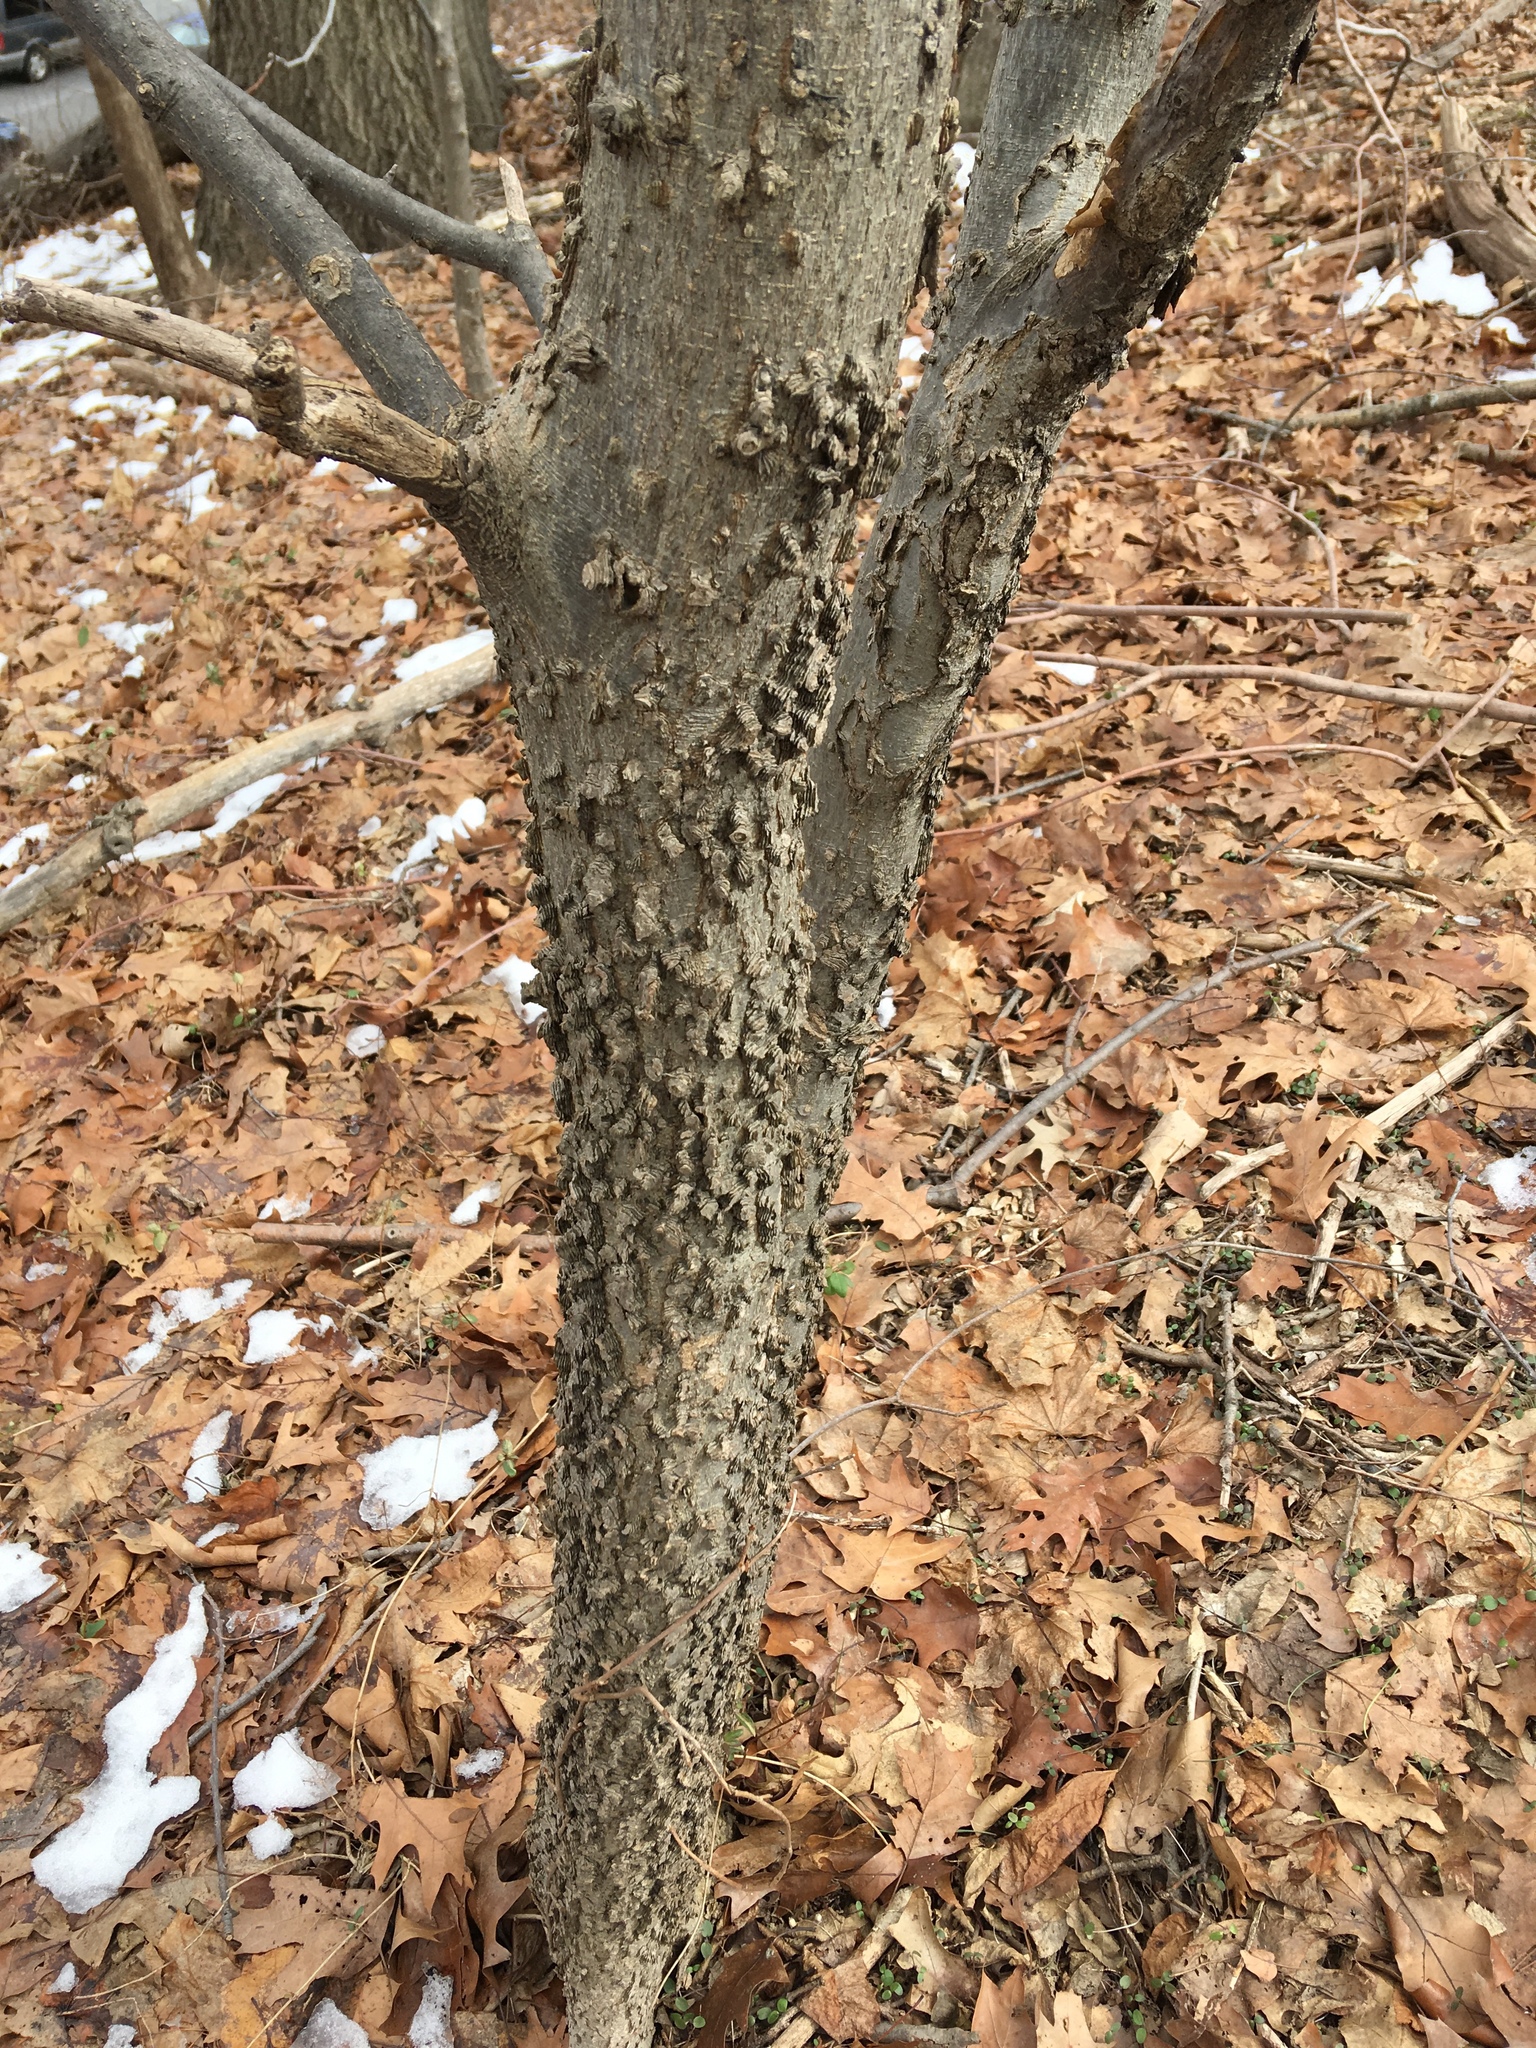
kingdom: Plantae
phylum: Tracheophyta
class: Magnoliopsida
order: Rosales
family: Cannabaceae
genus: Celtis
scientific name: Celtis occidentalis
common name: Common hackberry
